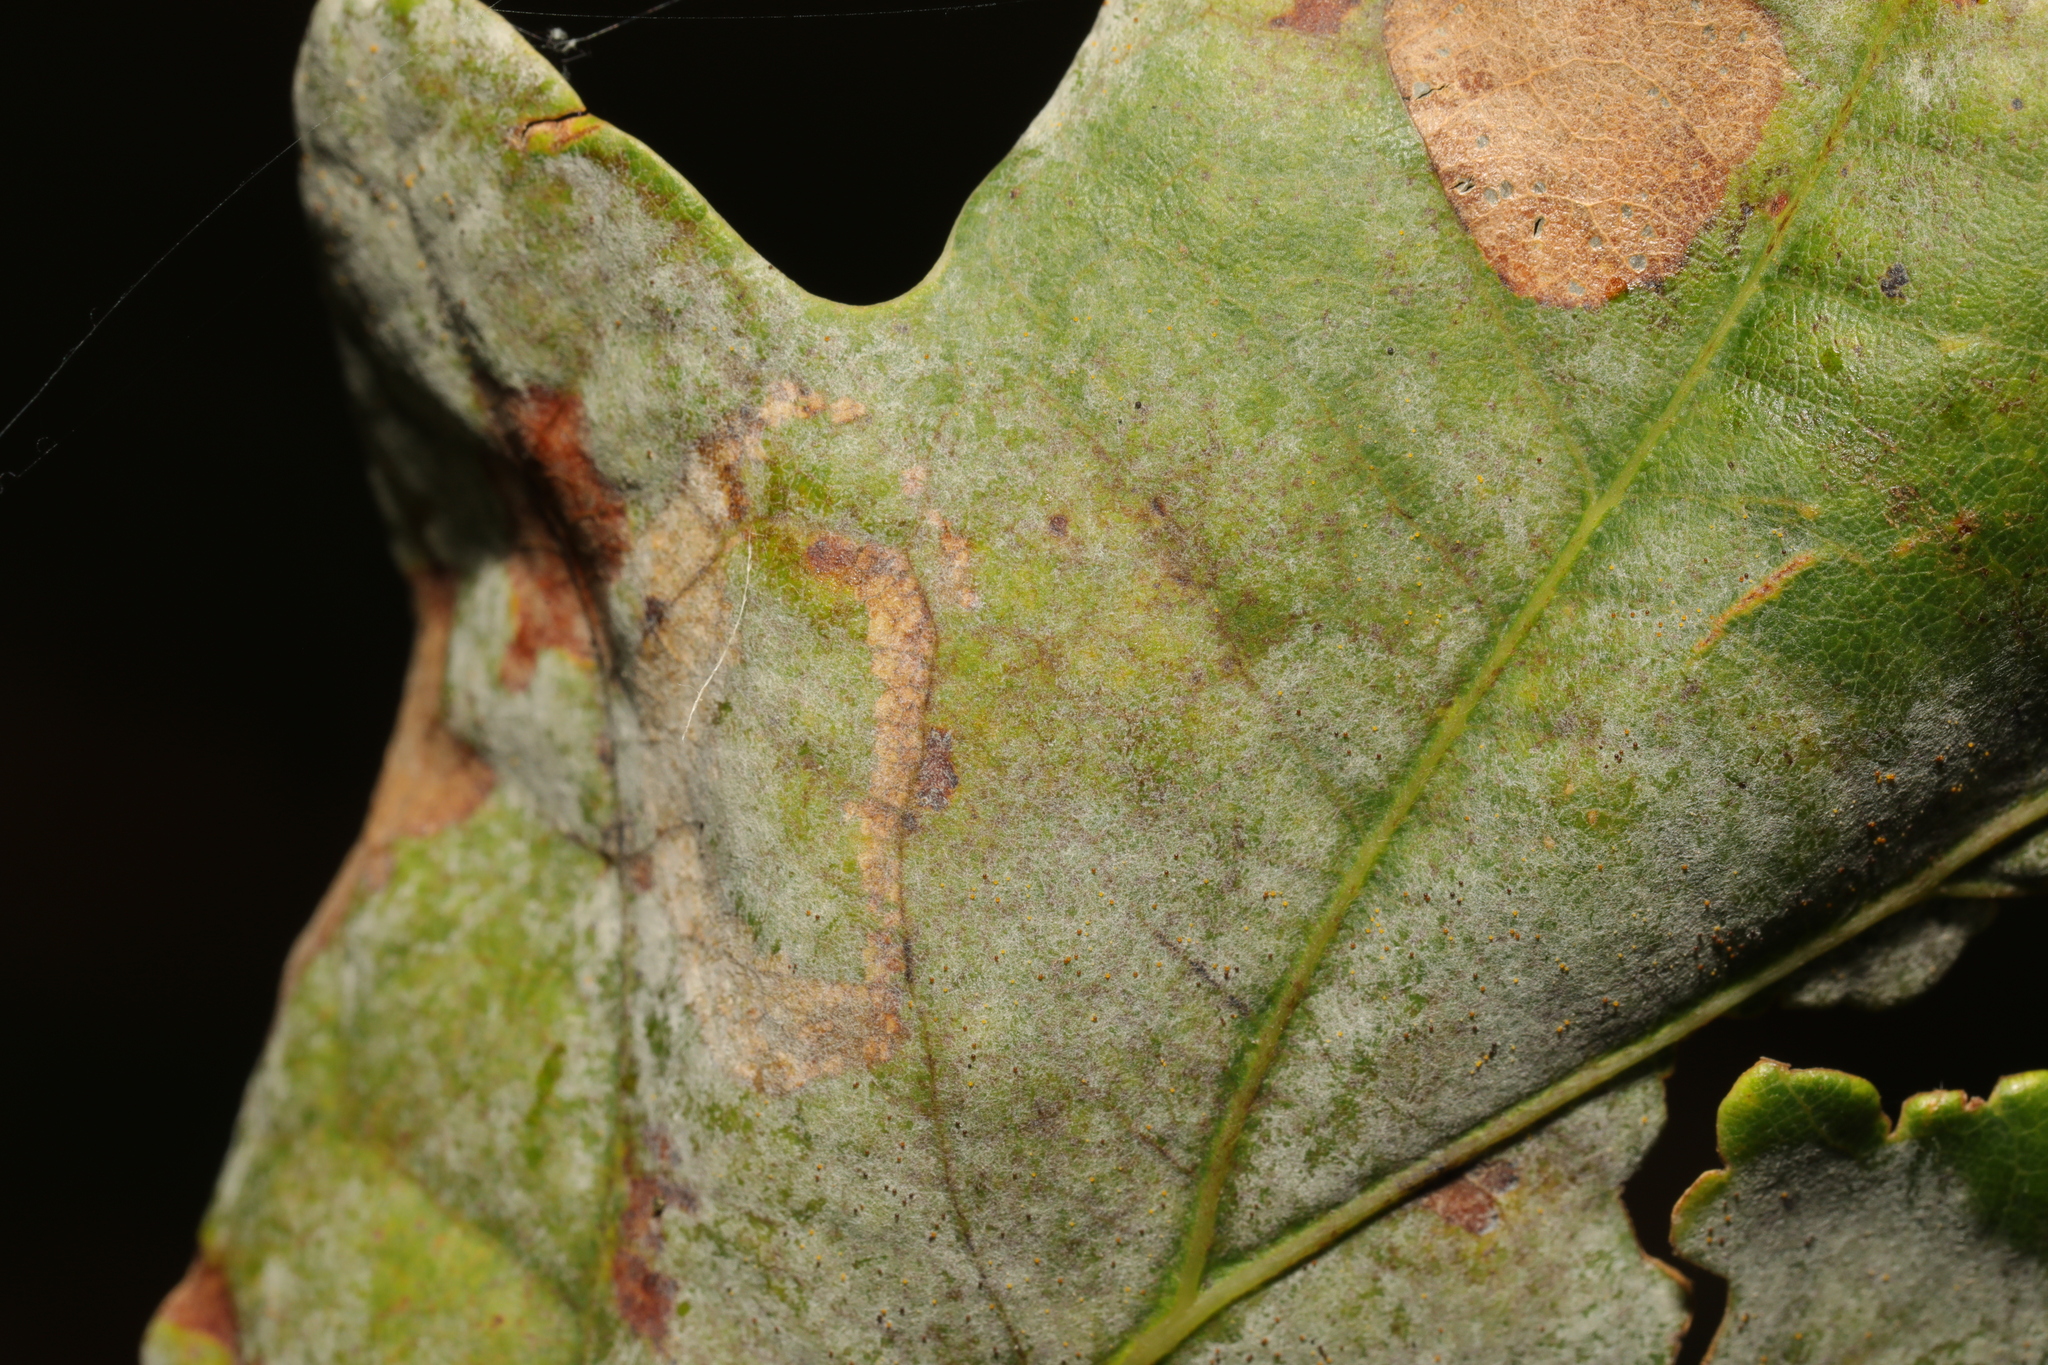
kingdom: Fungi
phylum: Ascomycota
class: Leotiomycetes
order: Helotiales
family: Erysiphaceae
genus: Erysiphe
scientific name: Erysiphe alphitoides
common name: Oak mildew
